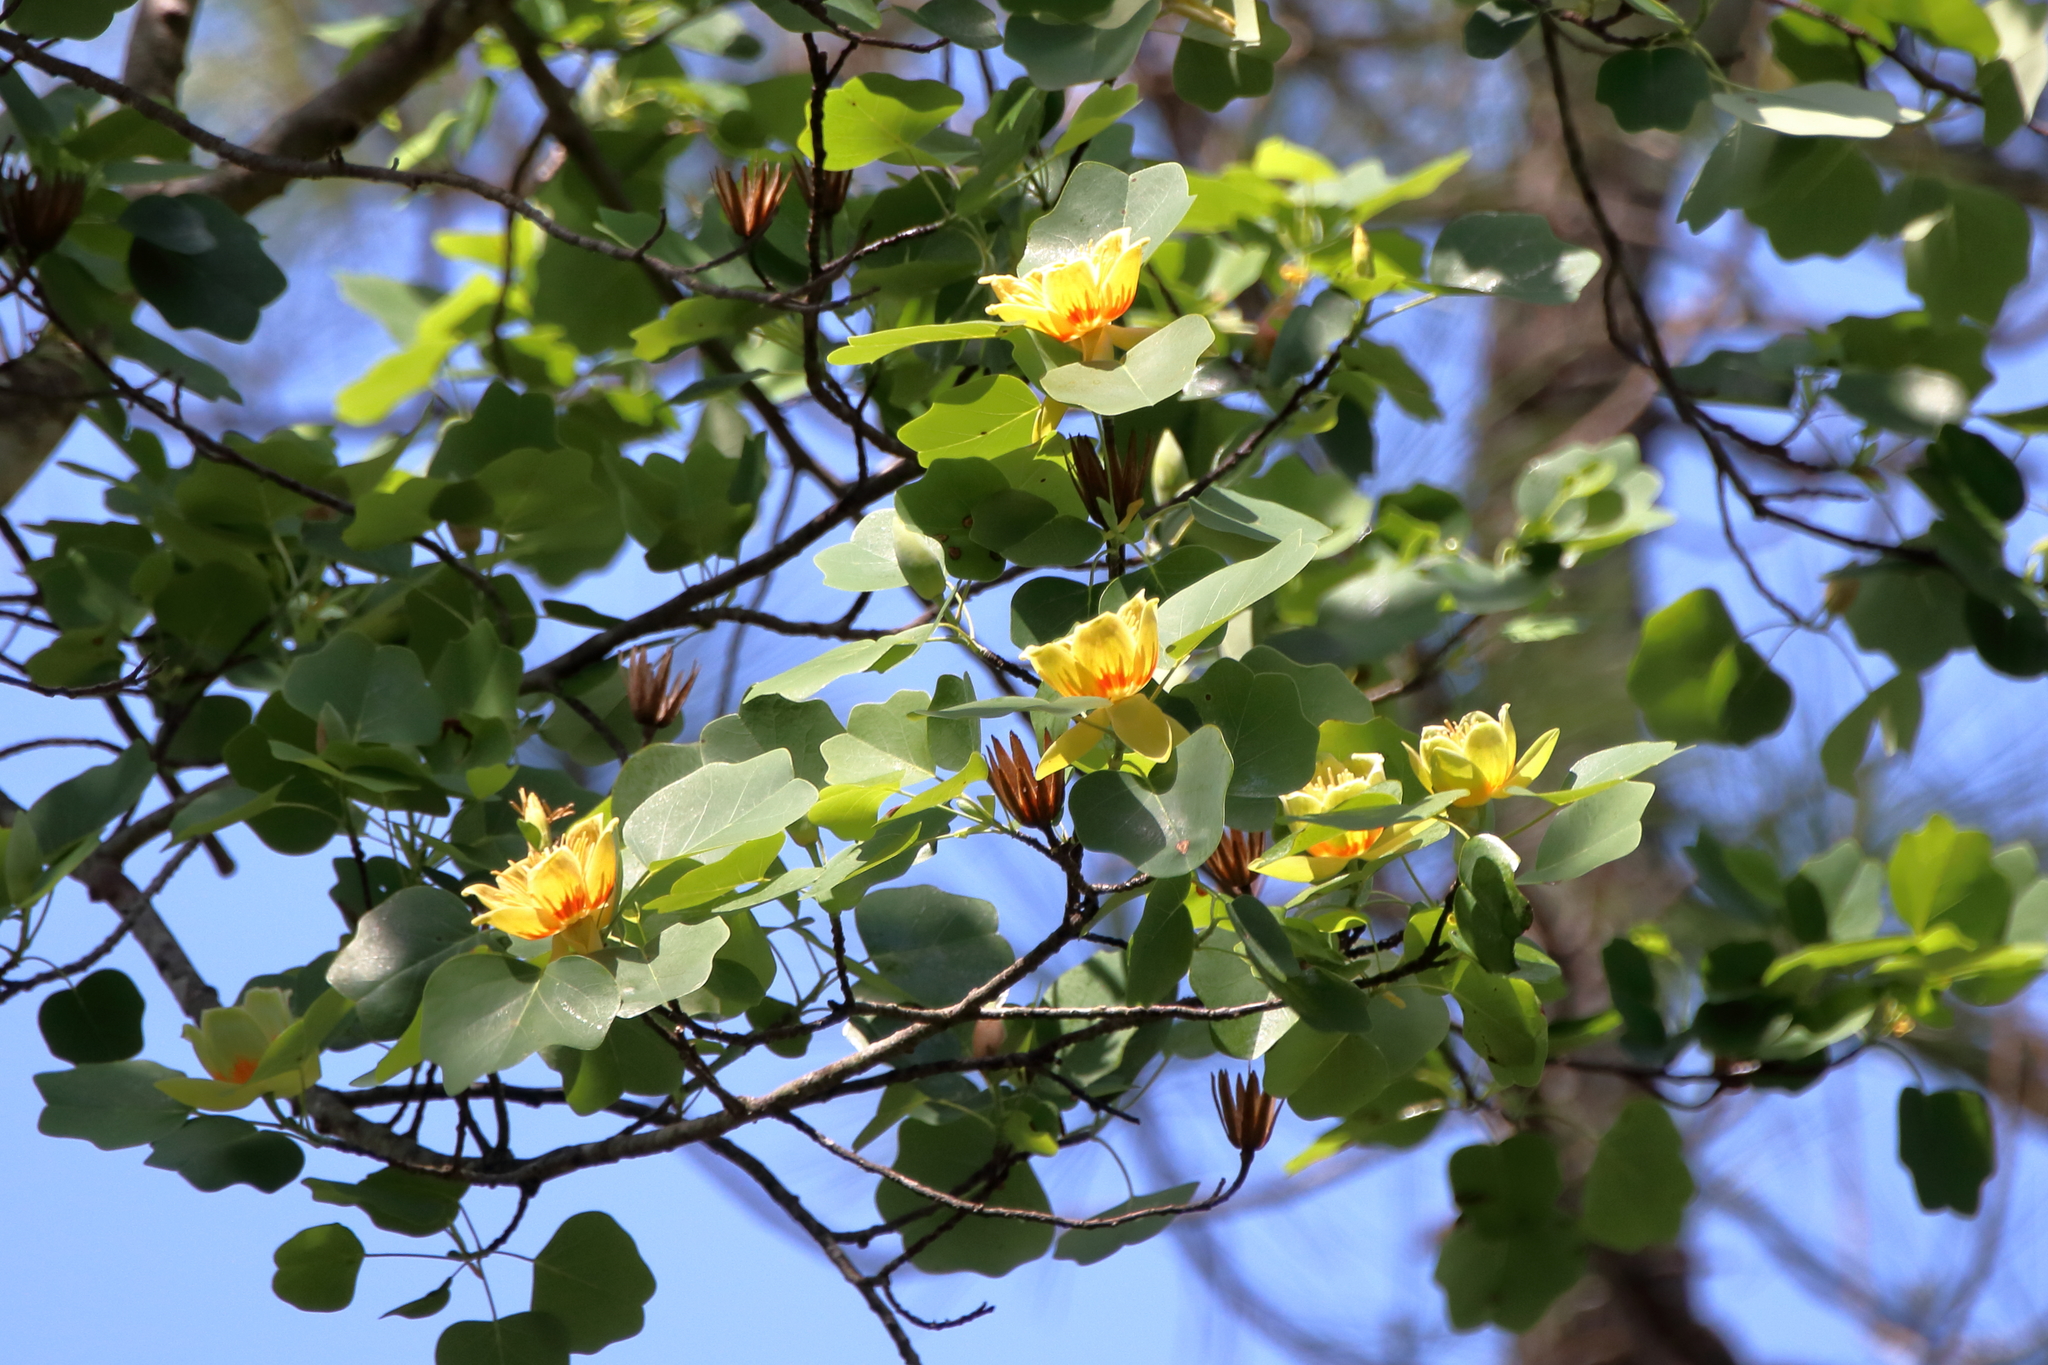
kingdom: Plantae
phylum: Tracheophyta
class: Magnoliopsida
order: Magnoliales
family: Magnoliaceae
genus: Liriodendron
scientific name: Liriodendron tulipifera
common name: Tulip tree
